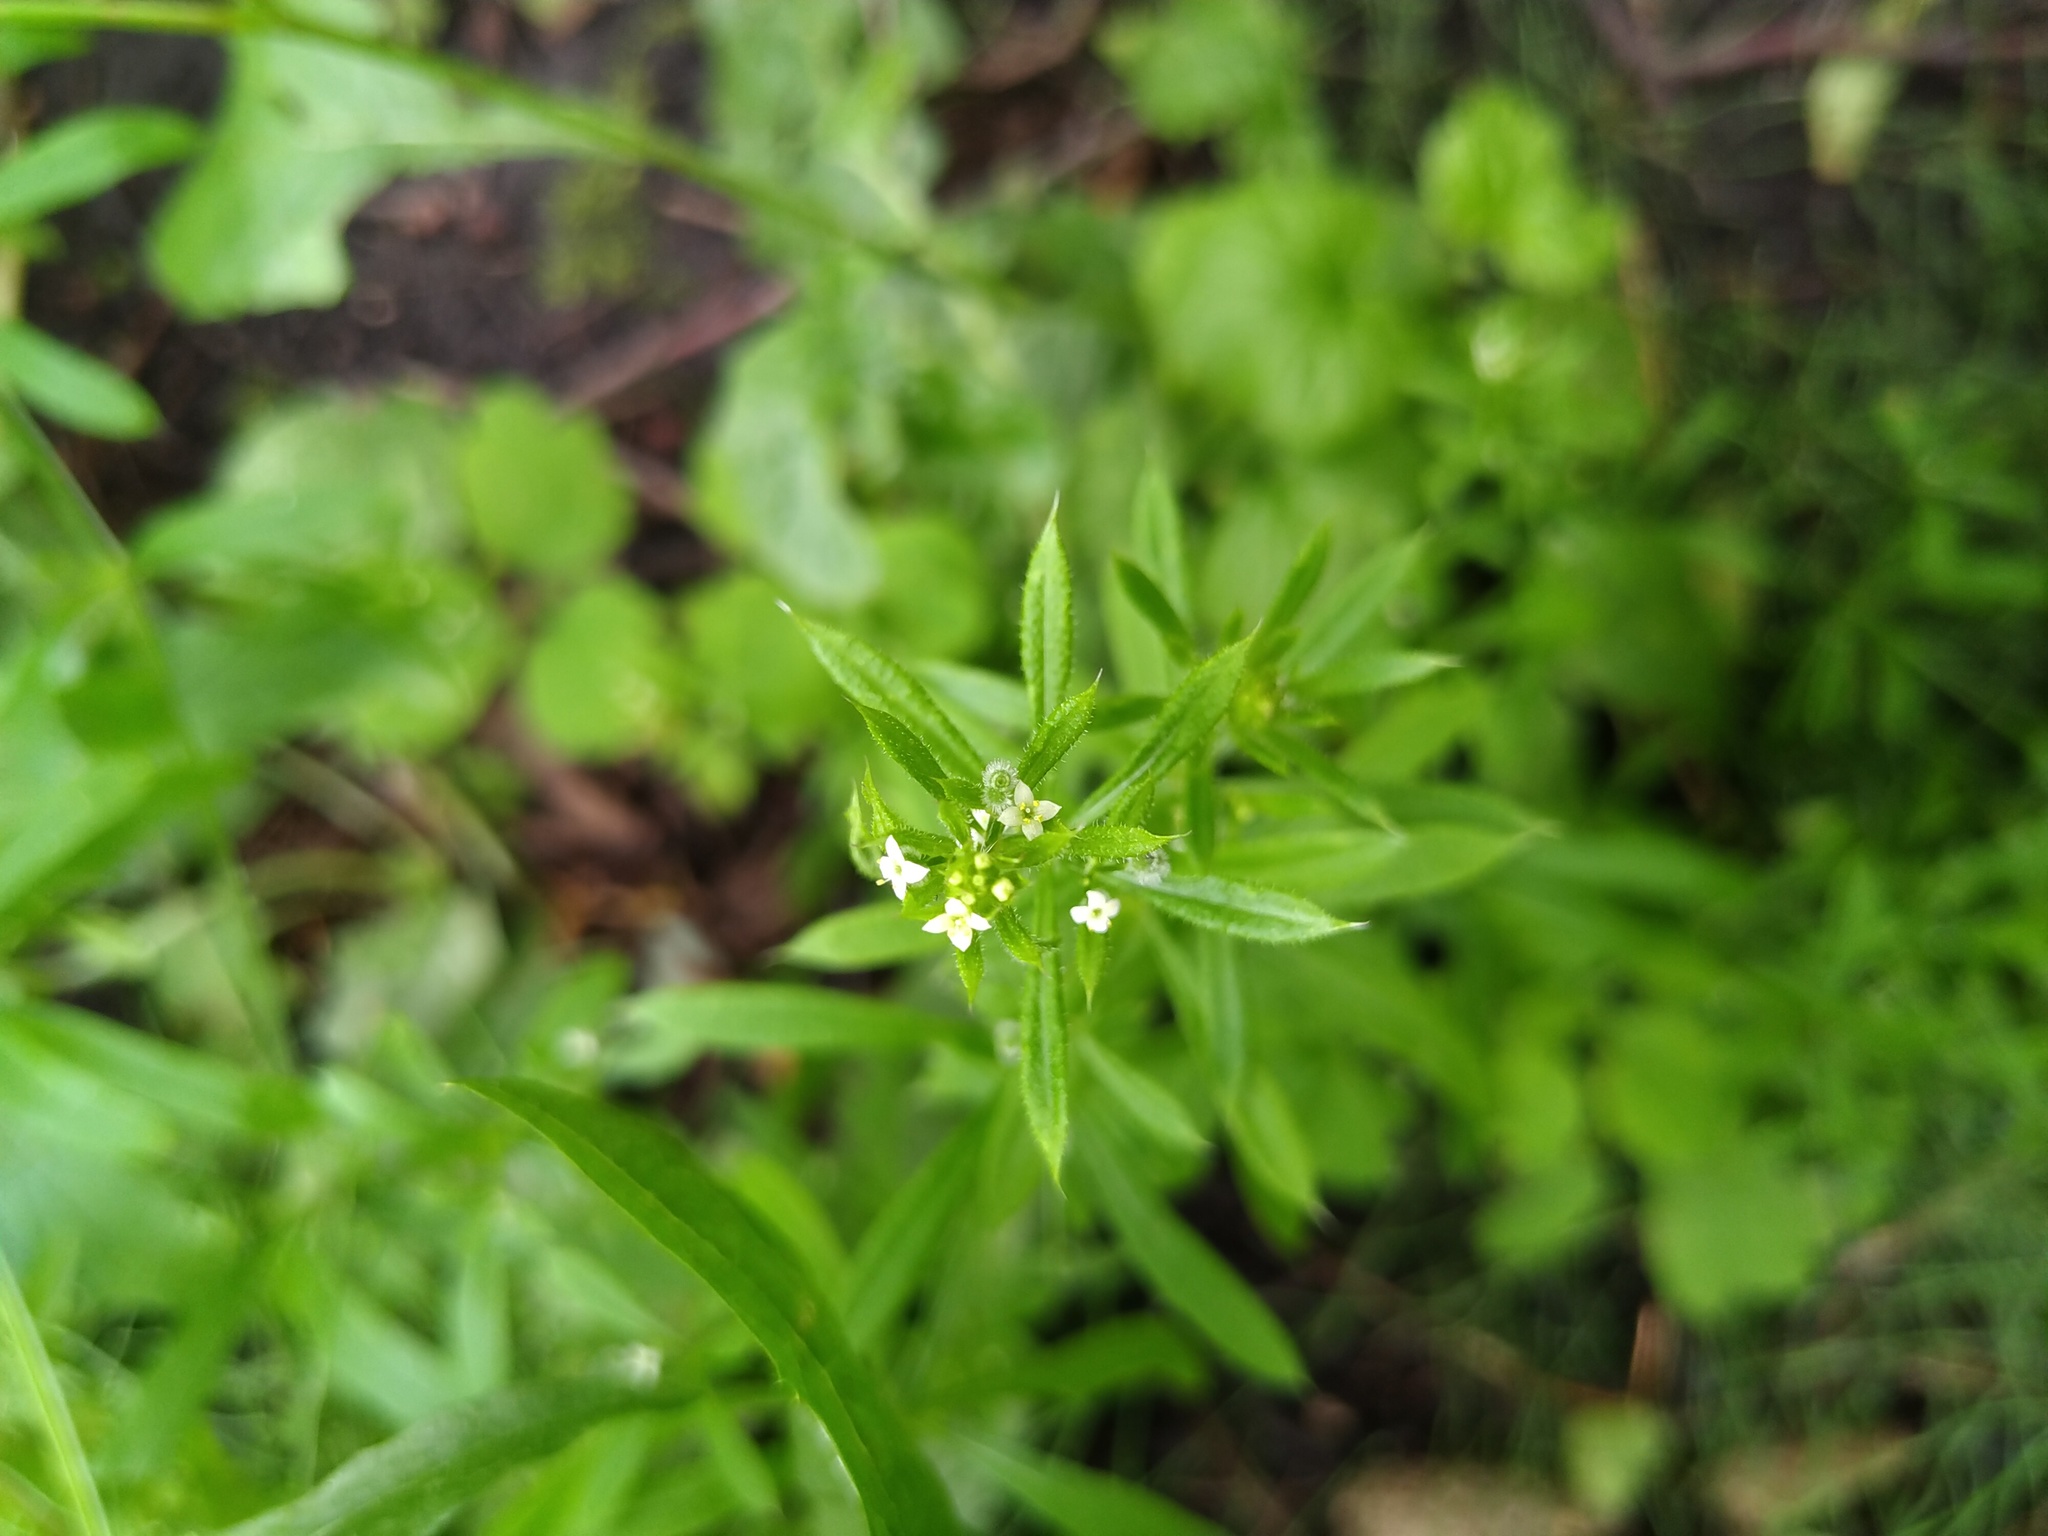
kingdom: Plantae
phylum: Tracheophyta
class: Magnoliopsida
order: Gentianales
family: Rubiaceae
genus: Galium
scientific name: Galium aparine
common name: Cleavers
